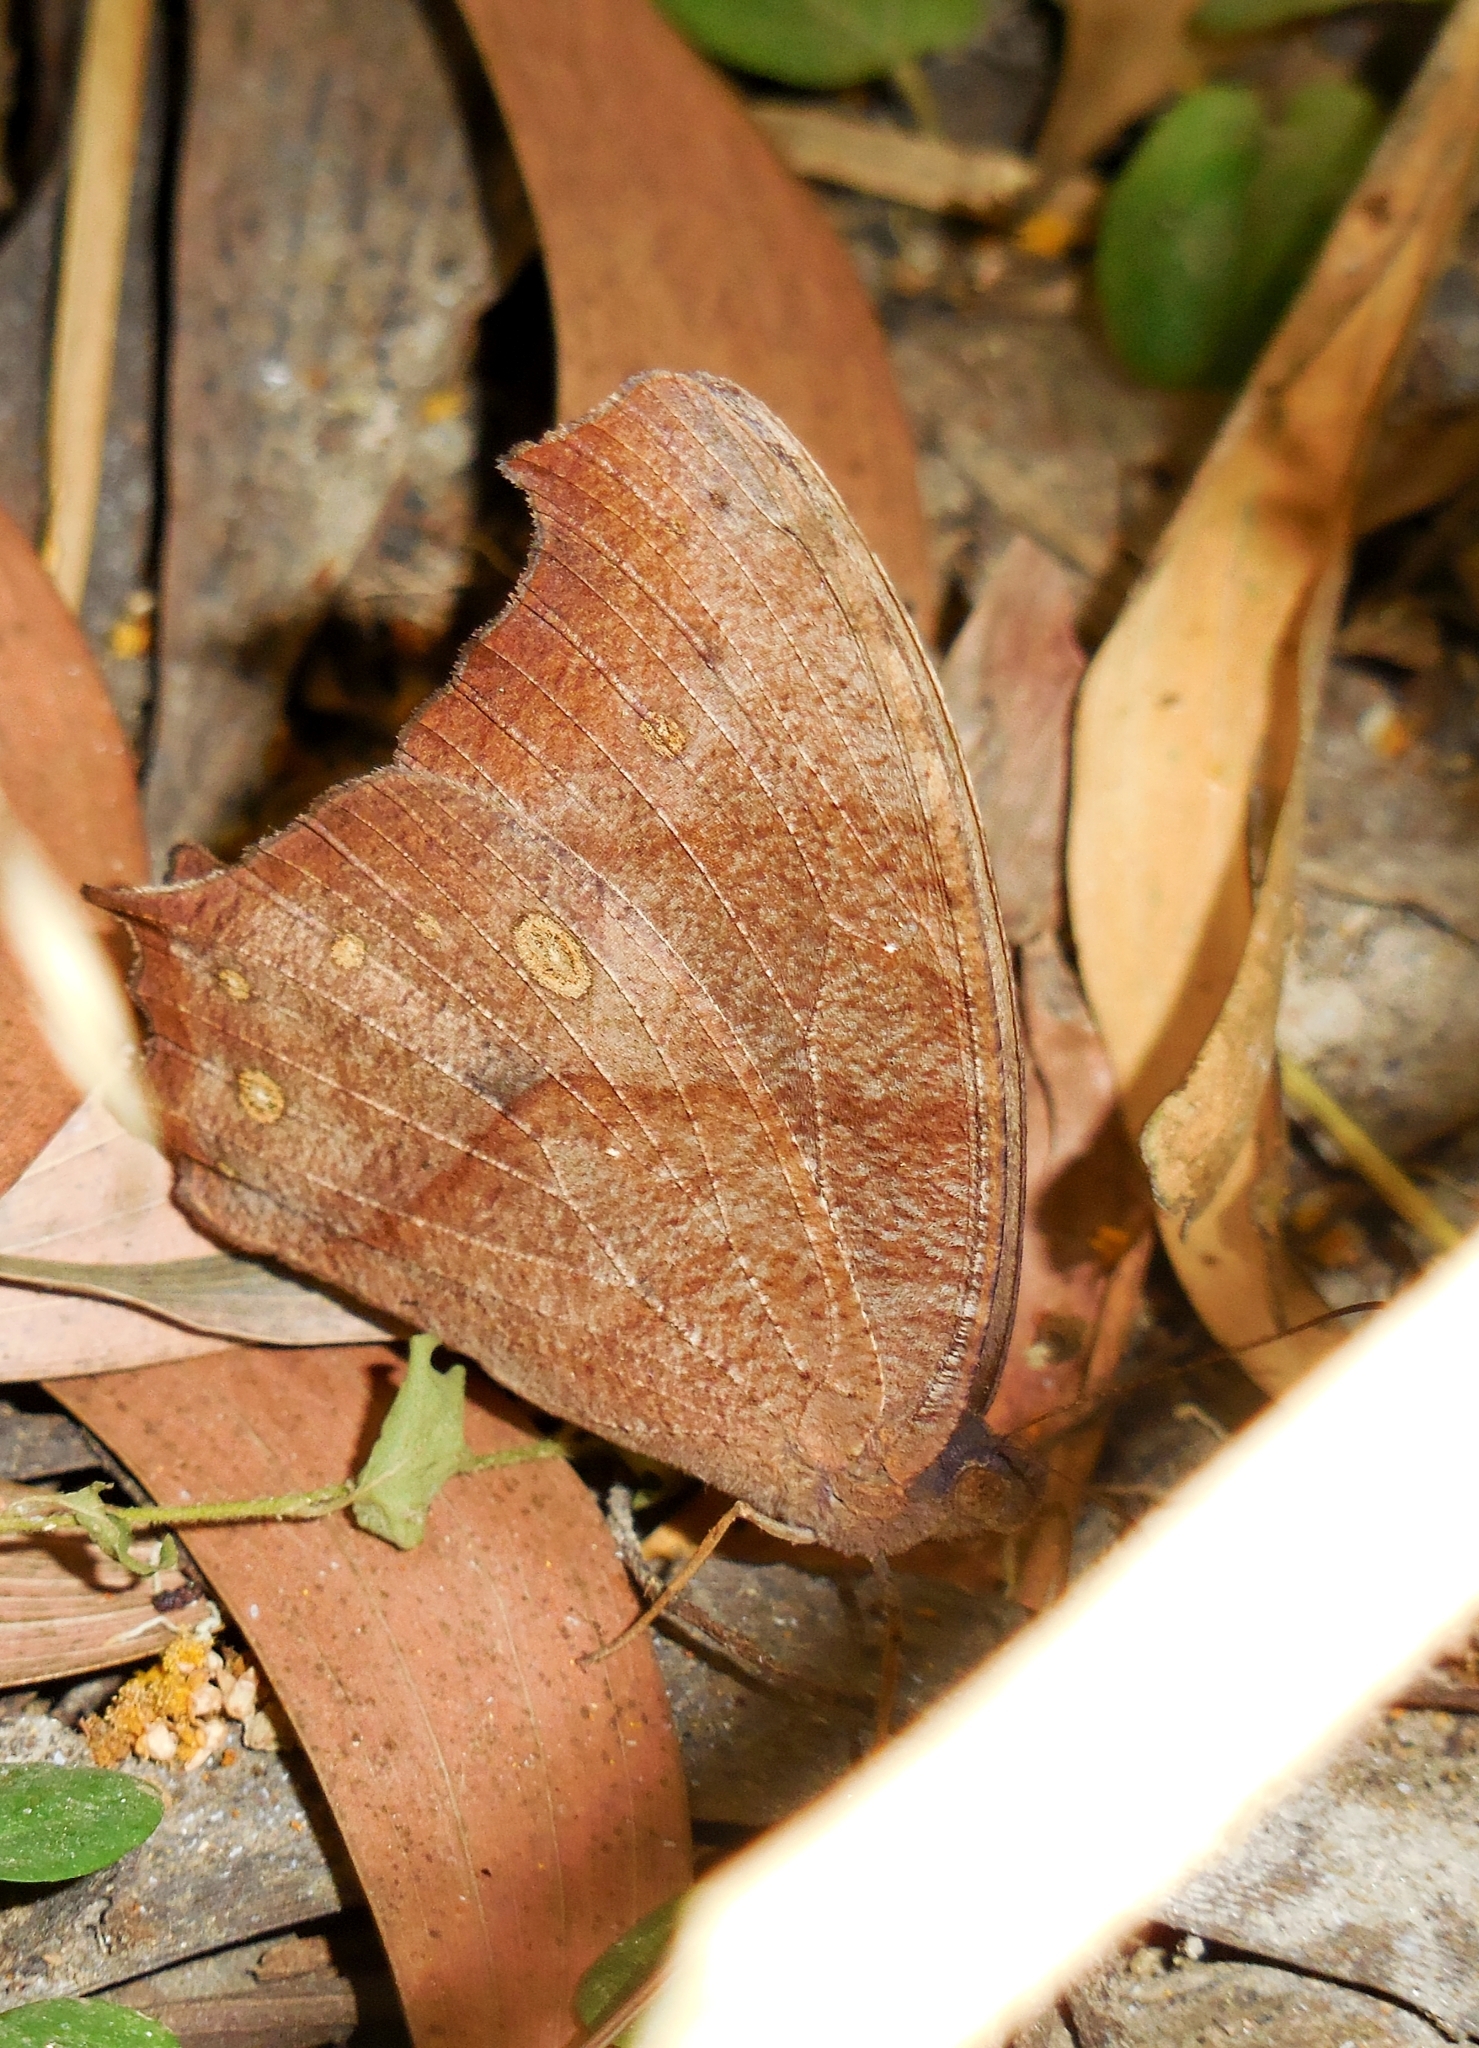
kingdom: Animalia
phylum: Arthropoda
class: Insecta
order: Lepidoptera
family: Nymphalidae
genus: Melanitis
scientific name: Melanitis phedima
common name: Dark evening brown
